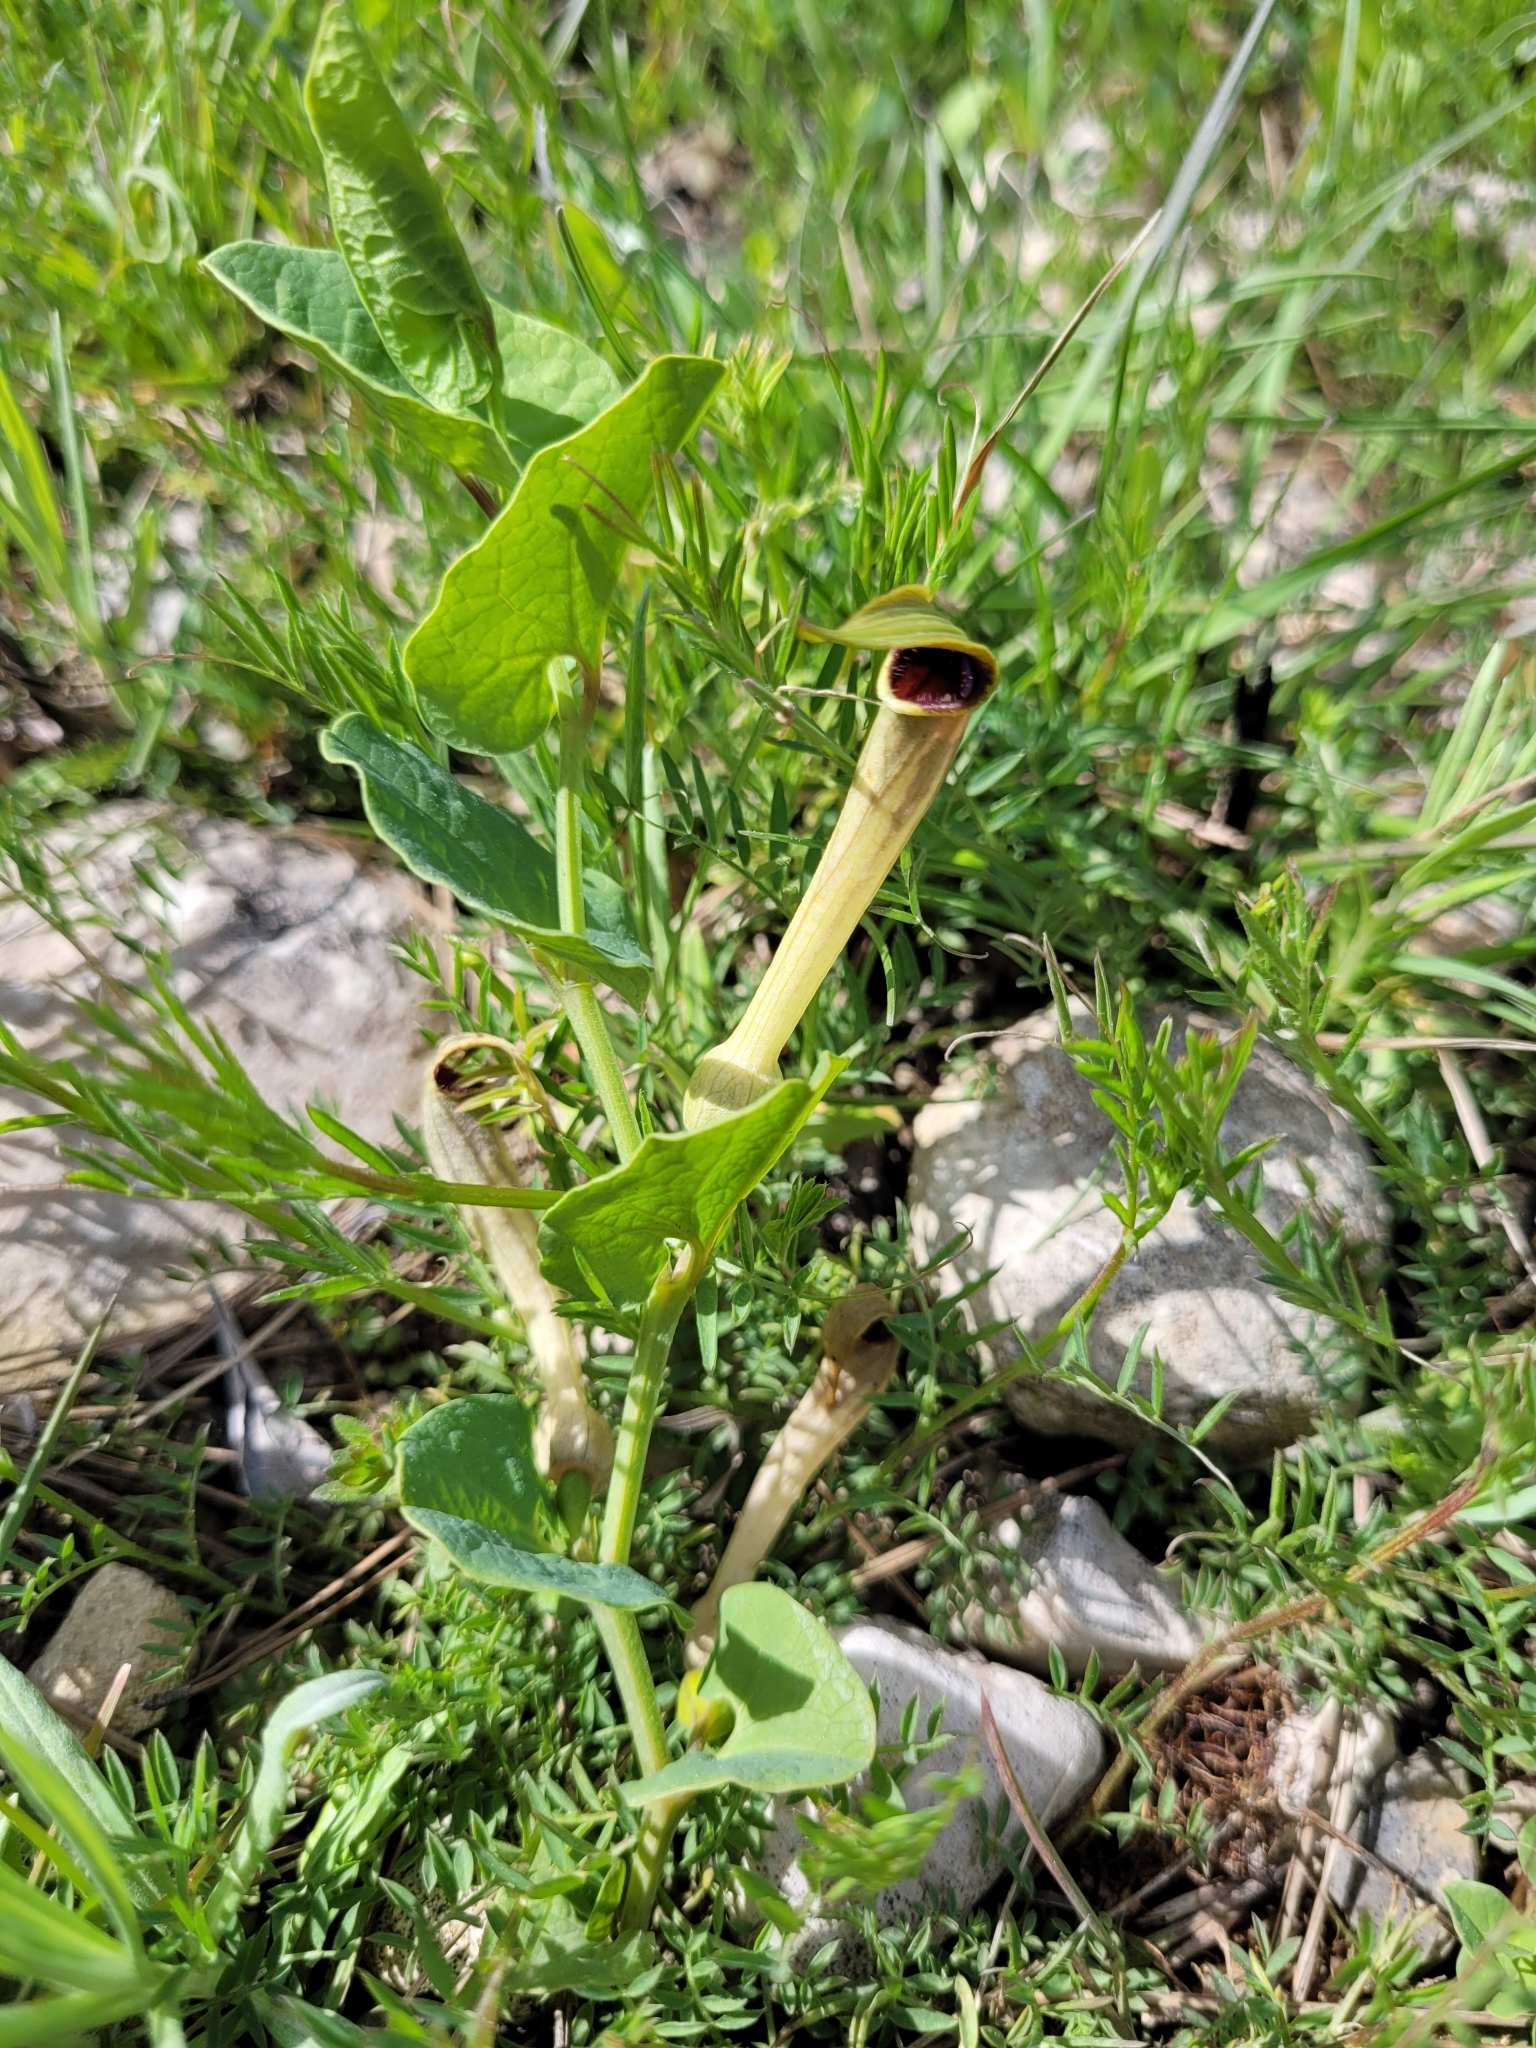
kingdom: Plantae
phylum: Tracheophyta
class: Magnoliopsida
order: Piperales
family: Aristolochiaceae
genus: Aristolochia
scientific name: Aristolochia paucinervis
